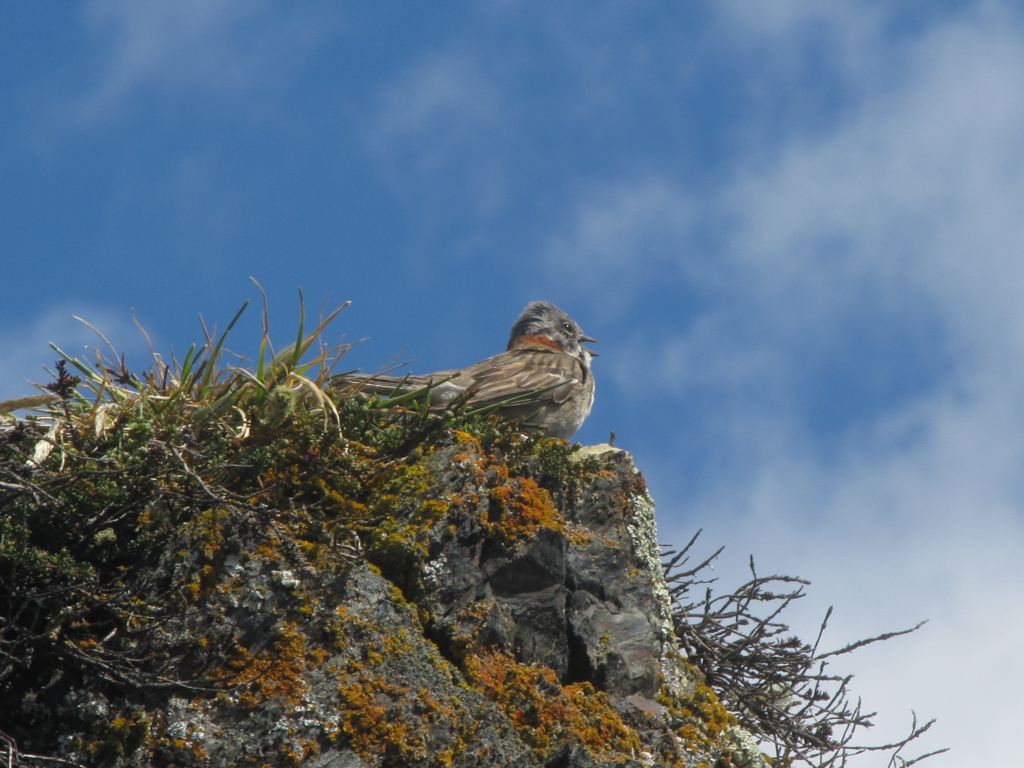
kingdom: Animalia
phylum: Chordata
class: Aves
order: Passeriformes
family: Passerellidae
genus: Zonotrichia
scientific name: Zonotrichia capensis
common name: Rufous-collared sparrow
